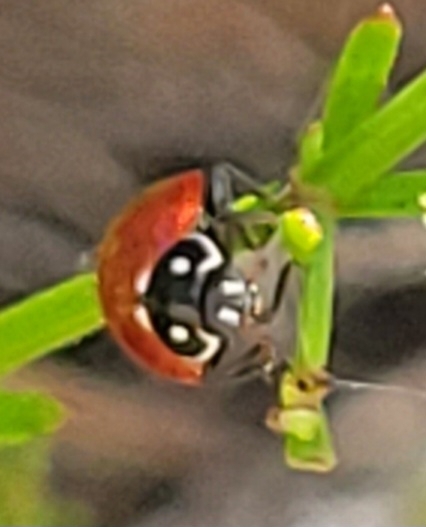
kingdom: Animalia
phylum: Arthropoda
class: Insecta
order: Coleoptera
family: Coccinellidae
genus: Cycloneda
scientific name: Cycloneda sanguinea
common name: Ladybird beetle
